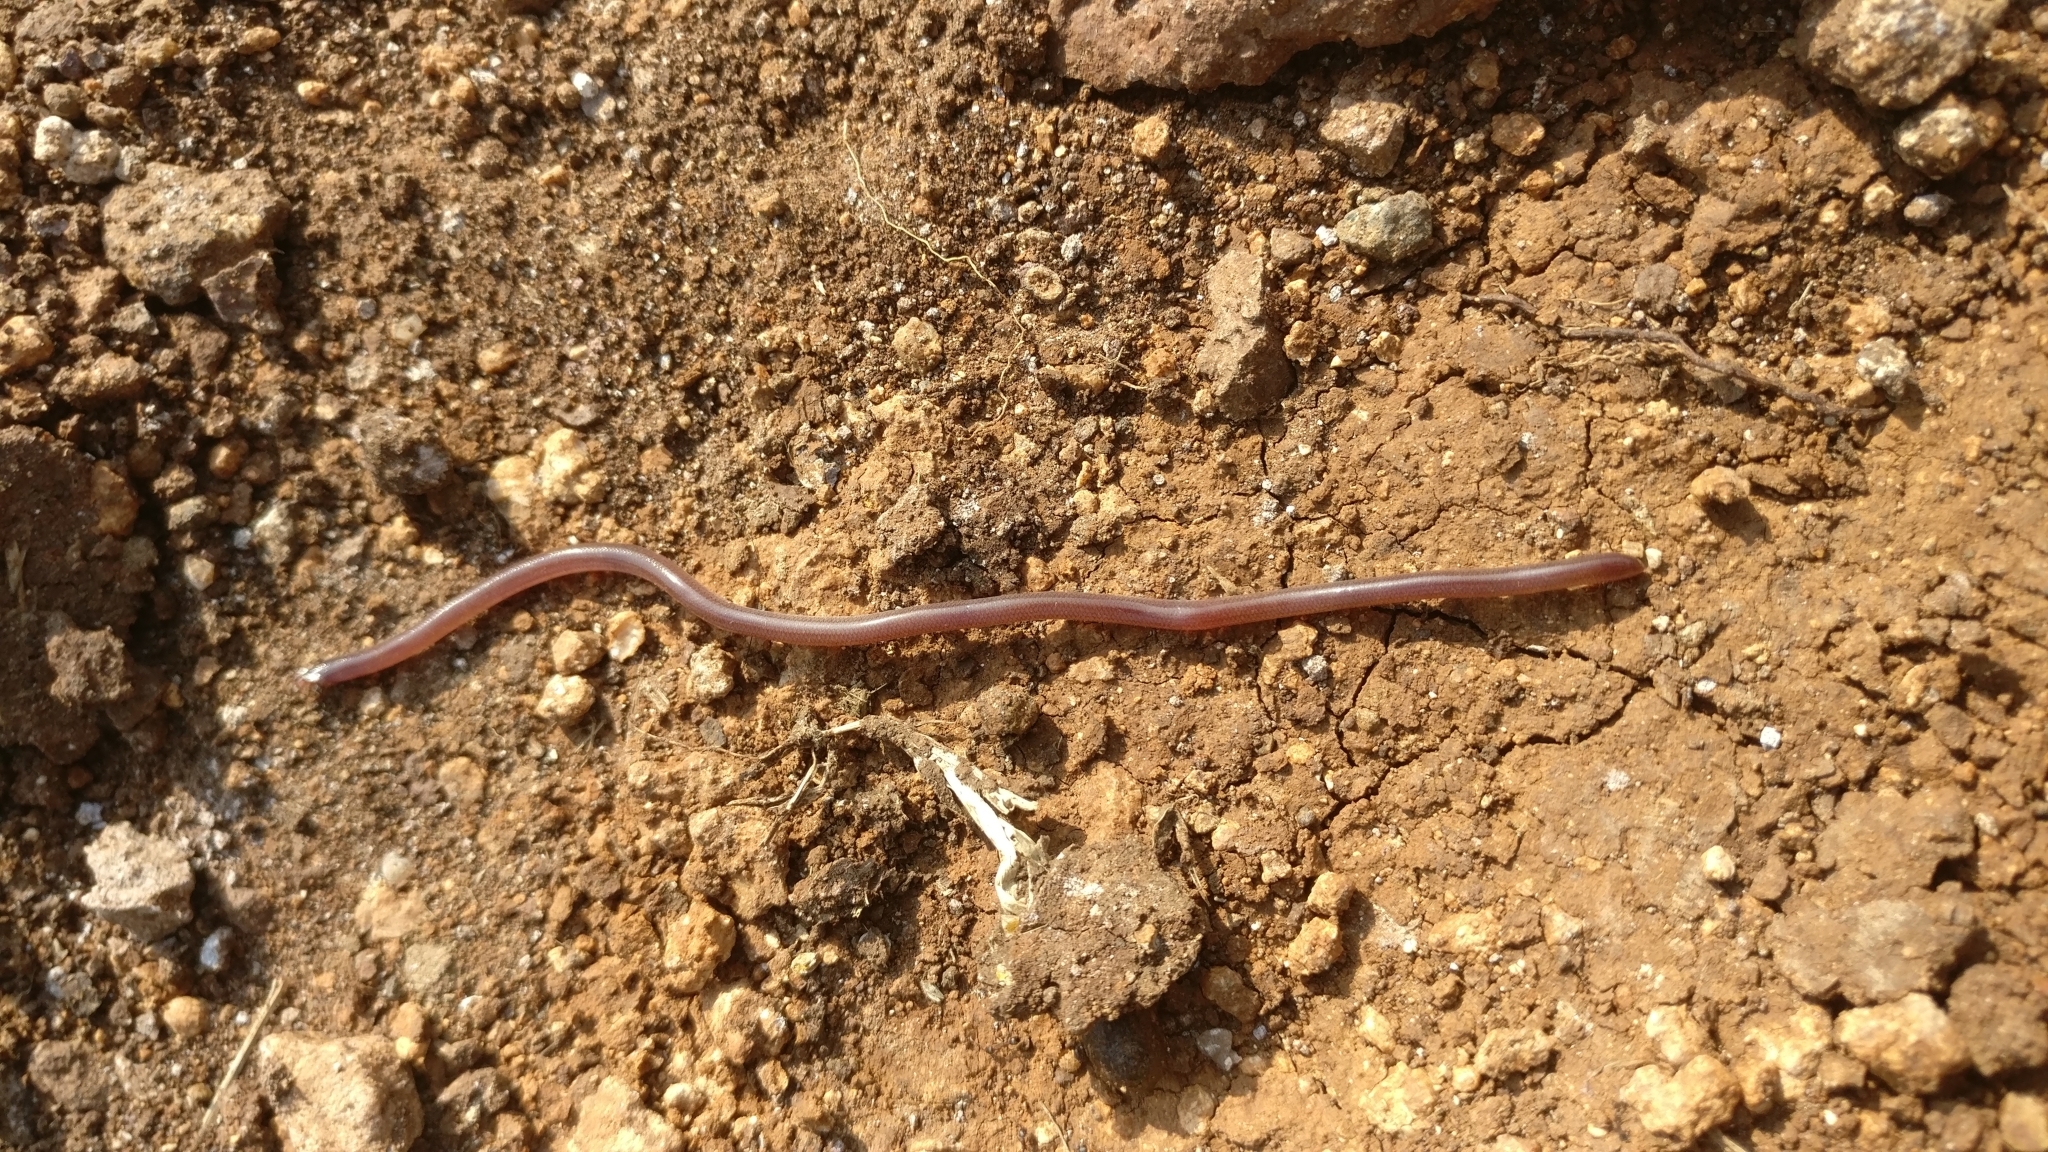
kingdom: Animalia
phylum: Chordata
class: Squamata
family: Typhlopidae
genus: Grypotyphlops
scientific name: Grypotyphlops acutus
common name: Beaked blind snake
